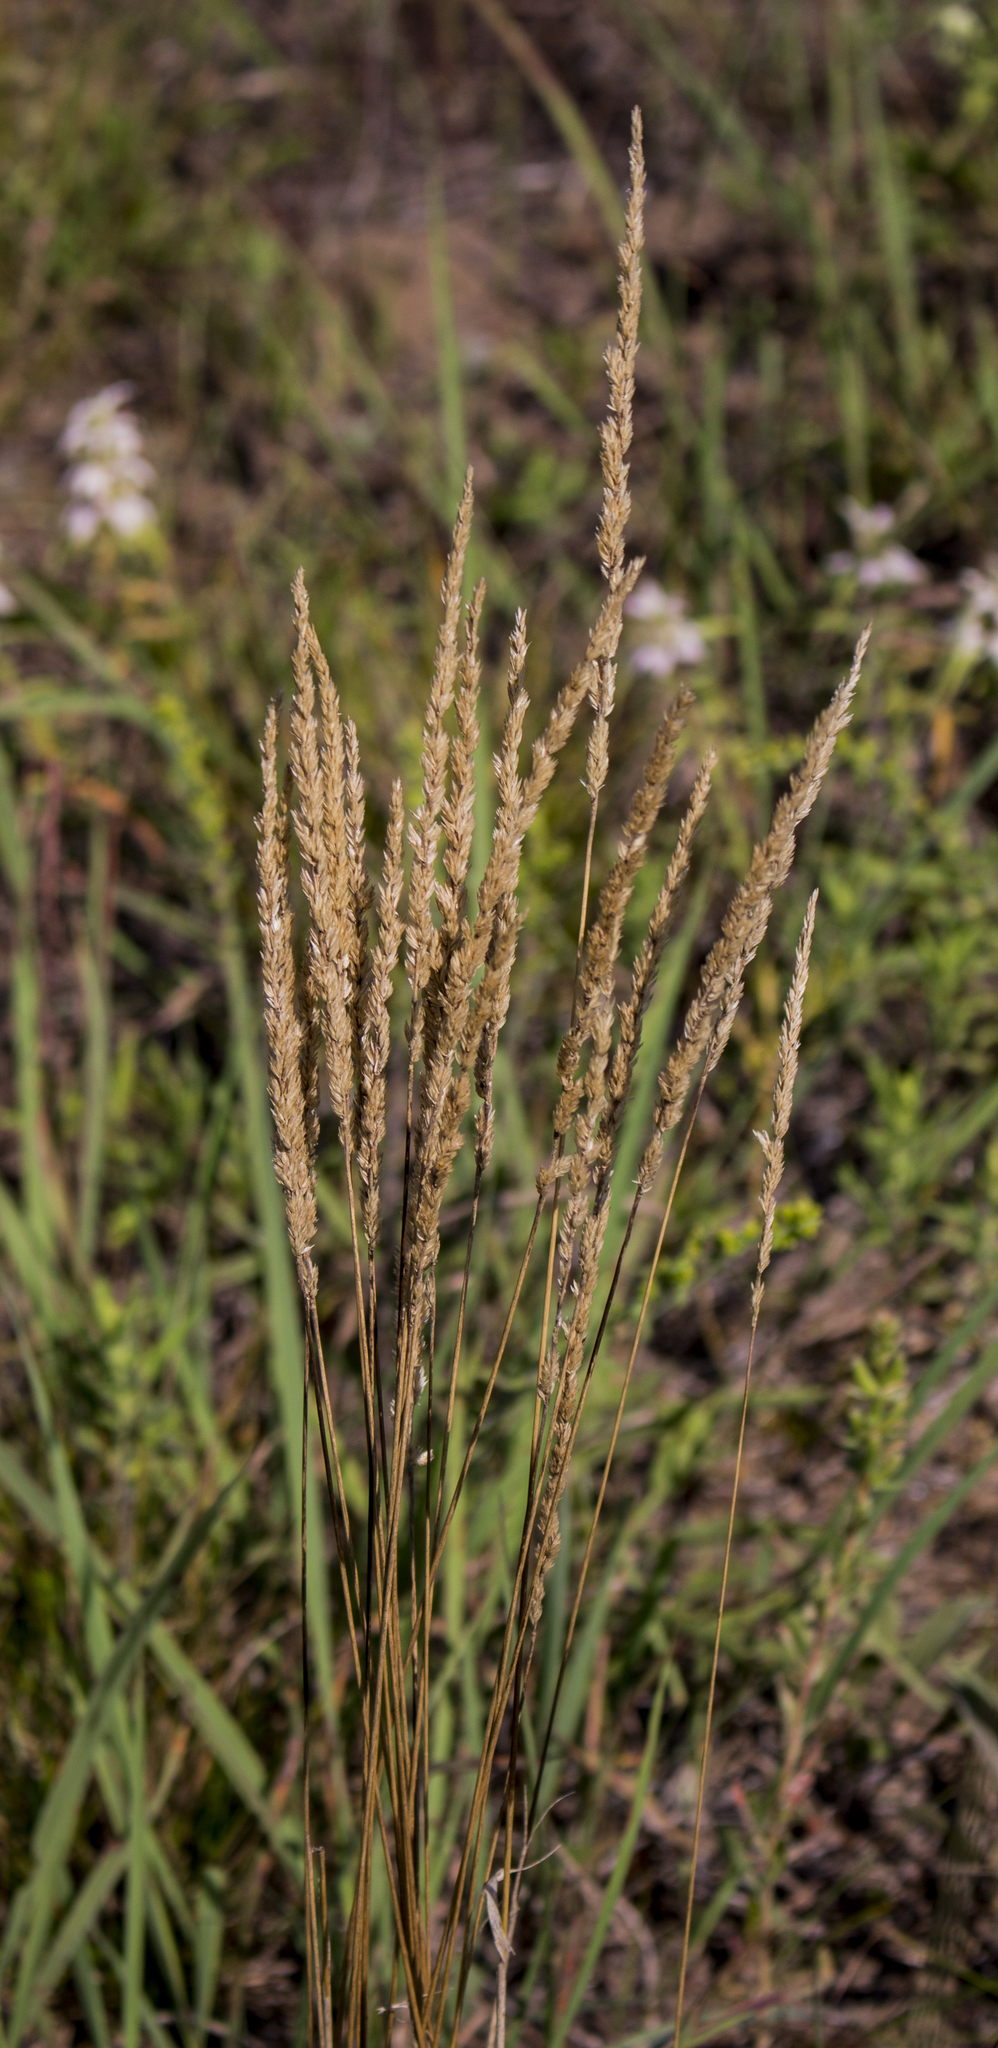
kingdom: Plantae
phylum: Tracheophyta
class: Liliopsida
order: Poales
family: Poaceae
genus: Koeleria
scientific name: Koeleria macrantha
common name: Crested hair-grass
